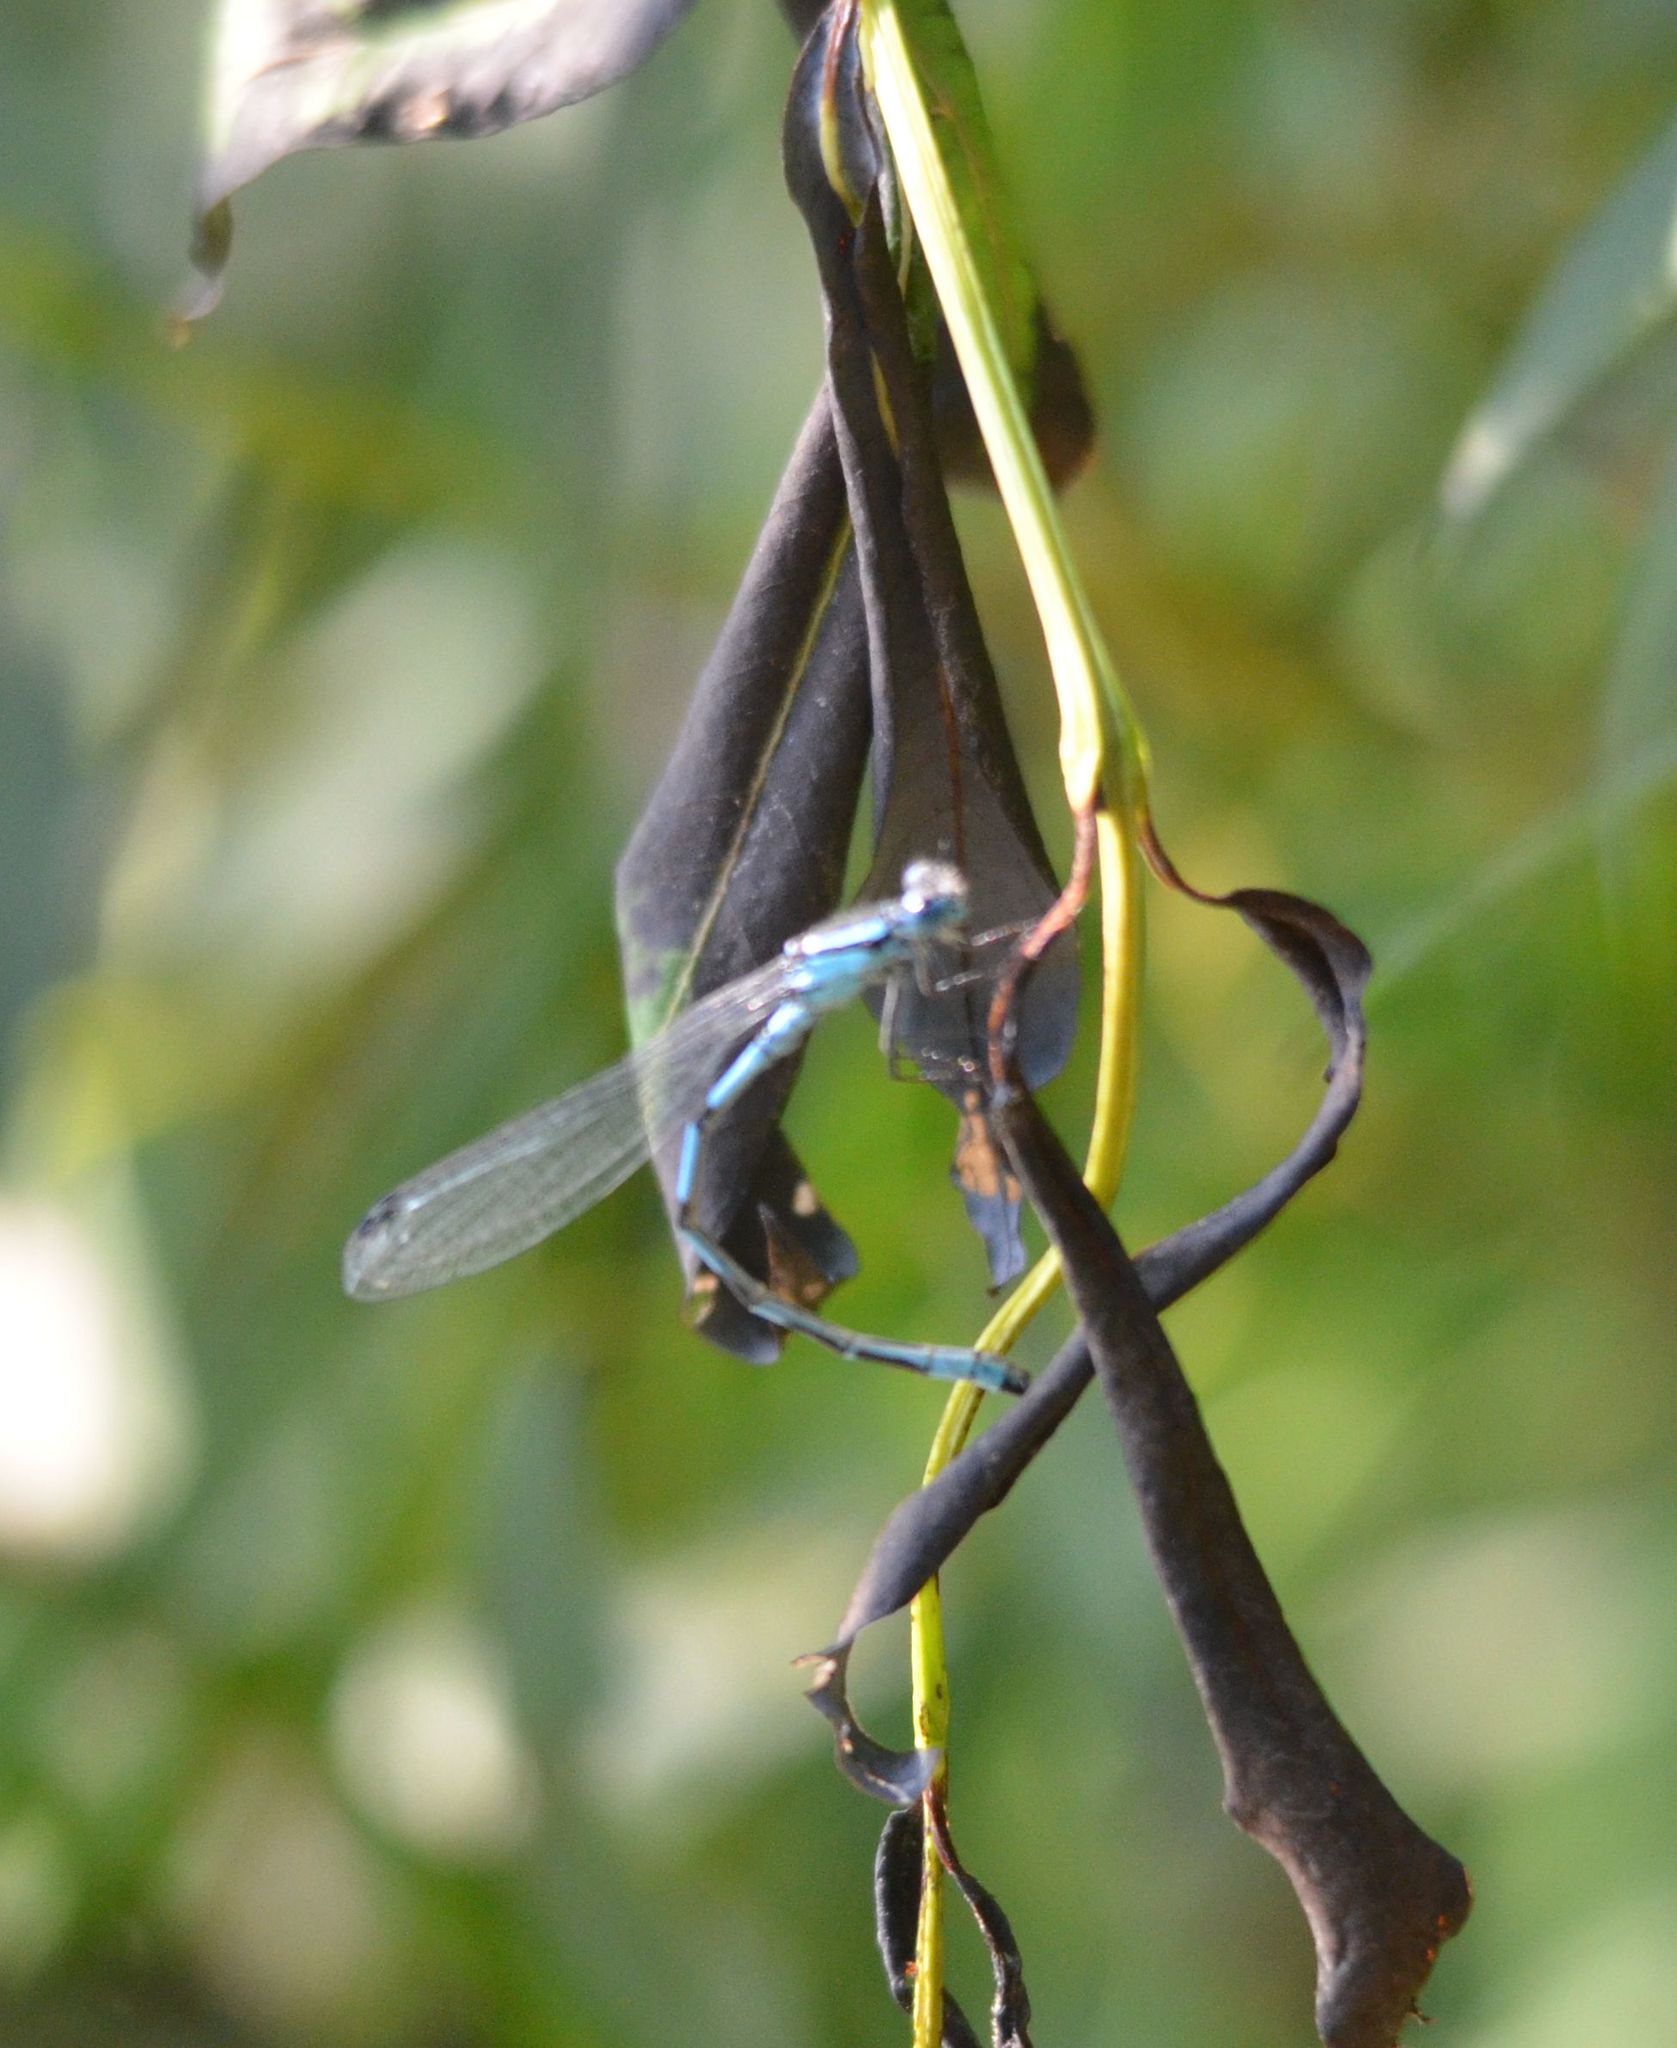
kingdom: Animalia
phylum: Arthropoda
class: Insecta
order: Odonata
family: Coenagrionidae
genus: Enallagma
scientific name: Enallagma cyathigerum
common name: Common blue damselfly
